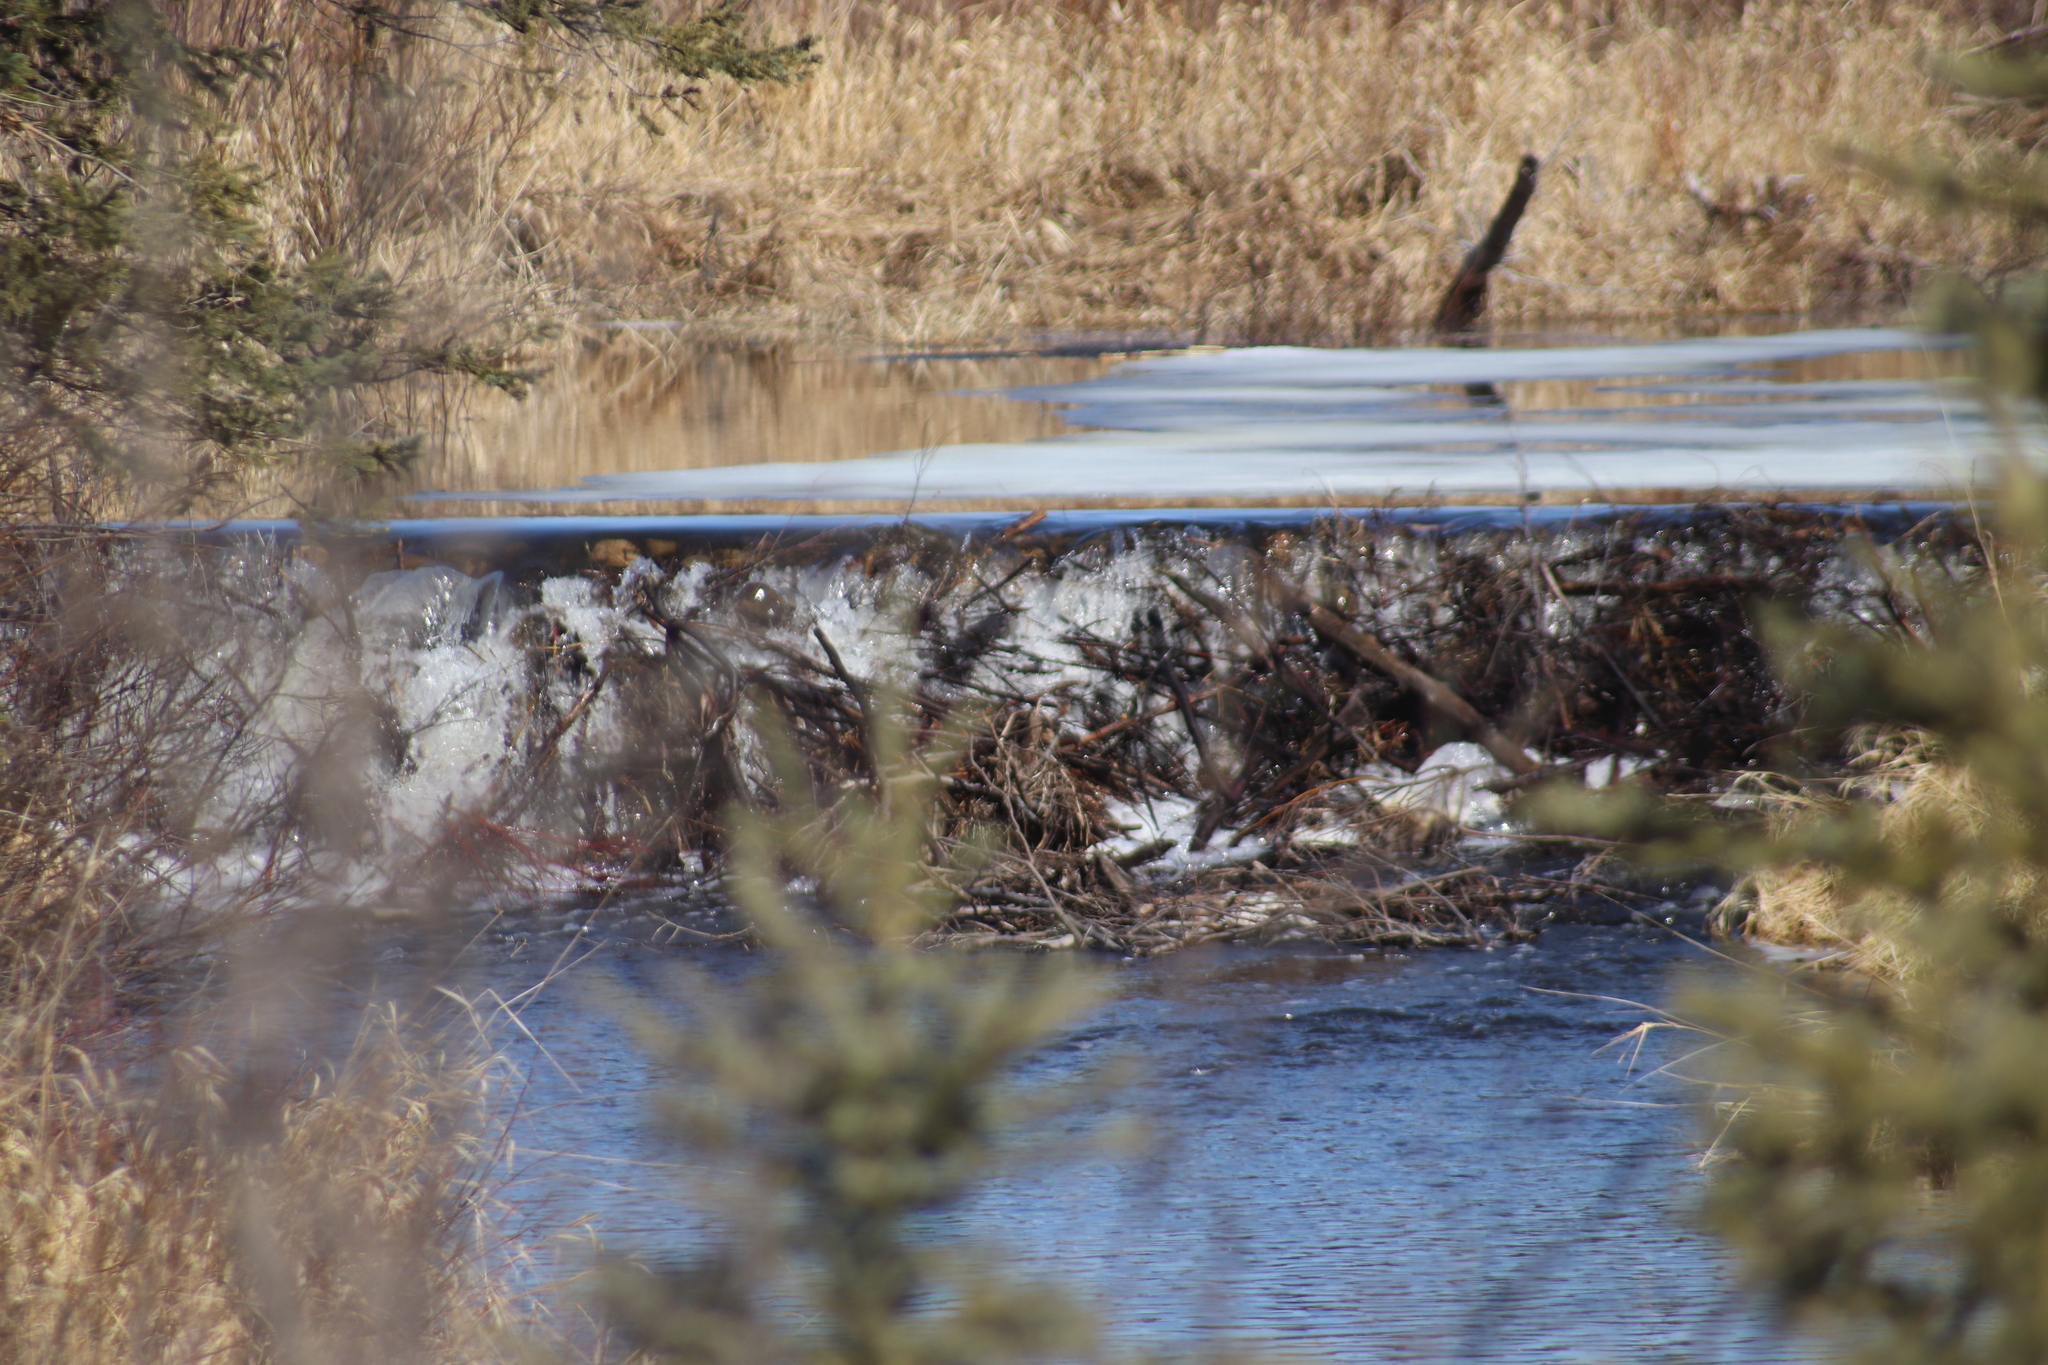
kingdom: Animalia
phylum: Chordata
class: Mammalia
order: Rodentia
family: Castoridae
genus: Castor
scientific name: Castor canadensis
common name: American beaver
